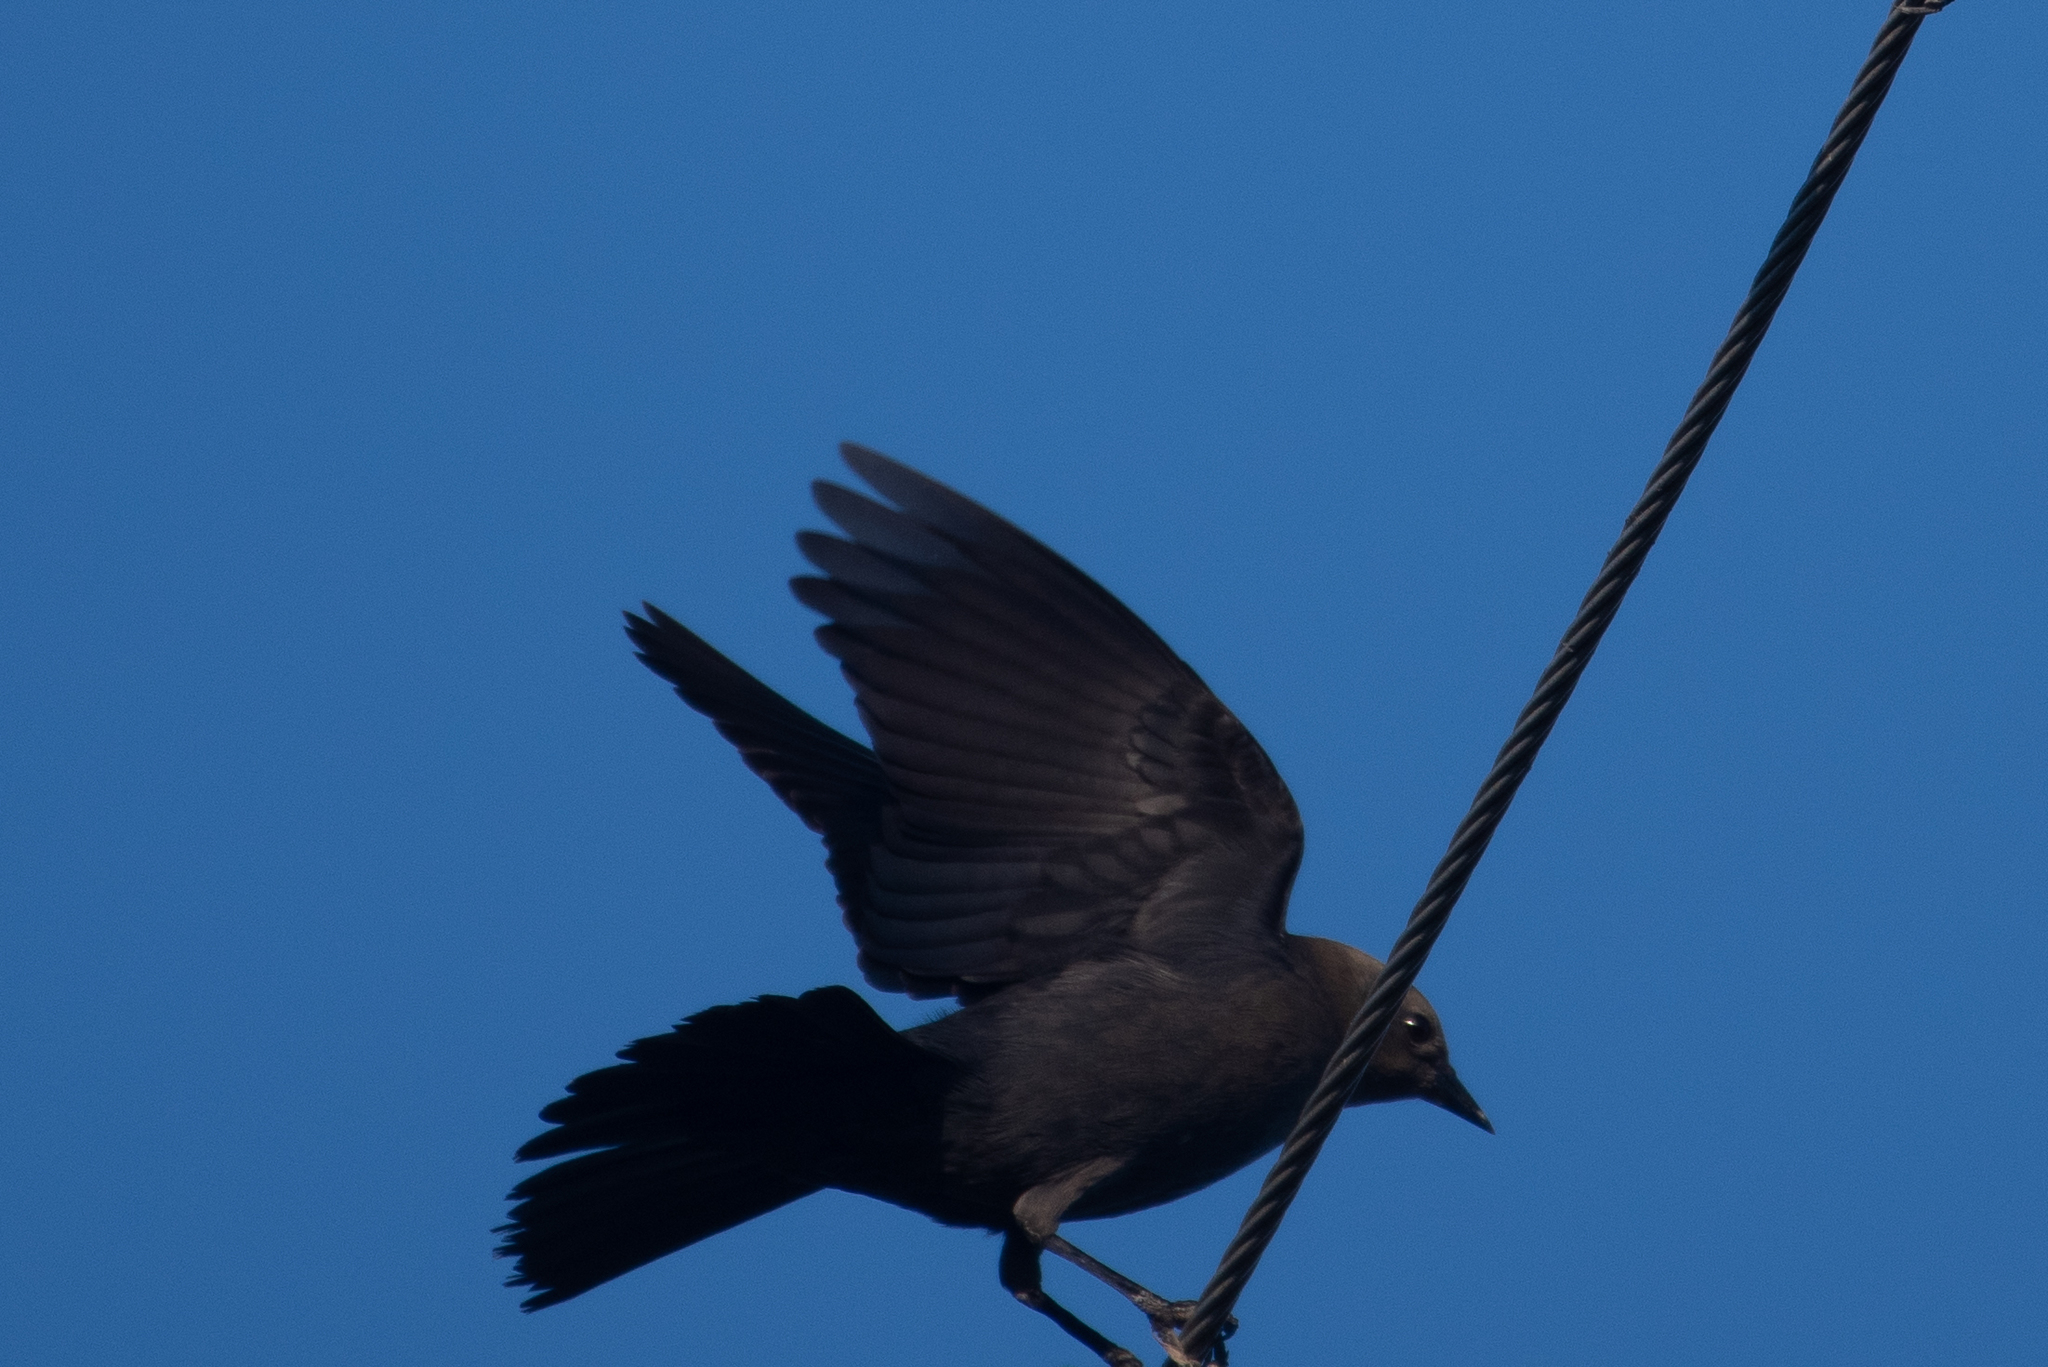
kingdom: Animalia
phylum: Chordata
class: Aves
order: Passeriformes
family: Icteridae
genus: Euphagus
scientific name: Euphagus cyanocephalus
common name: Brewer's blackbird
